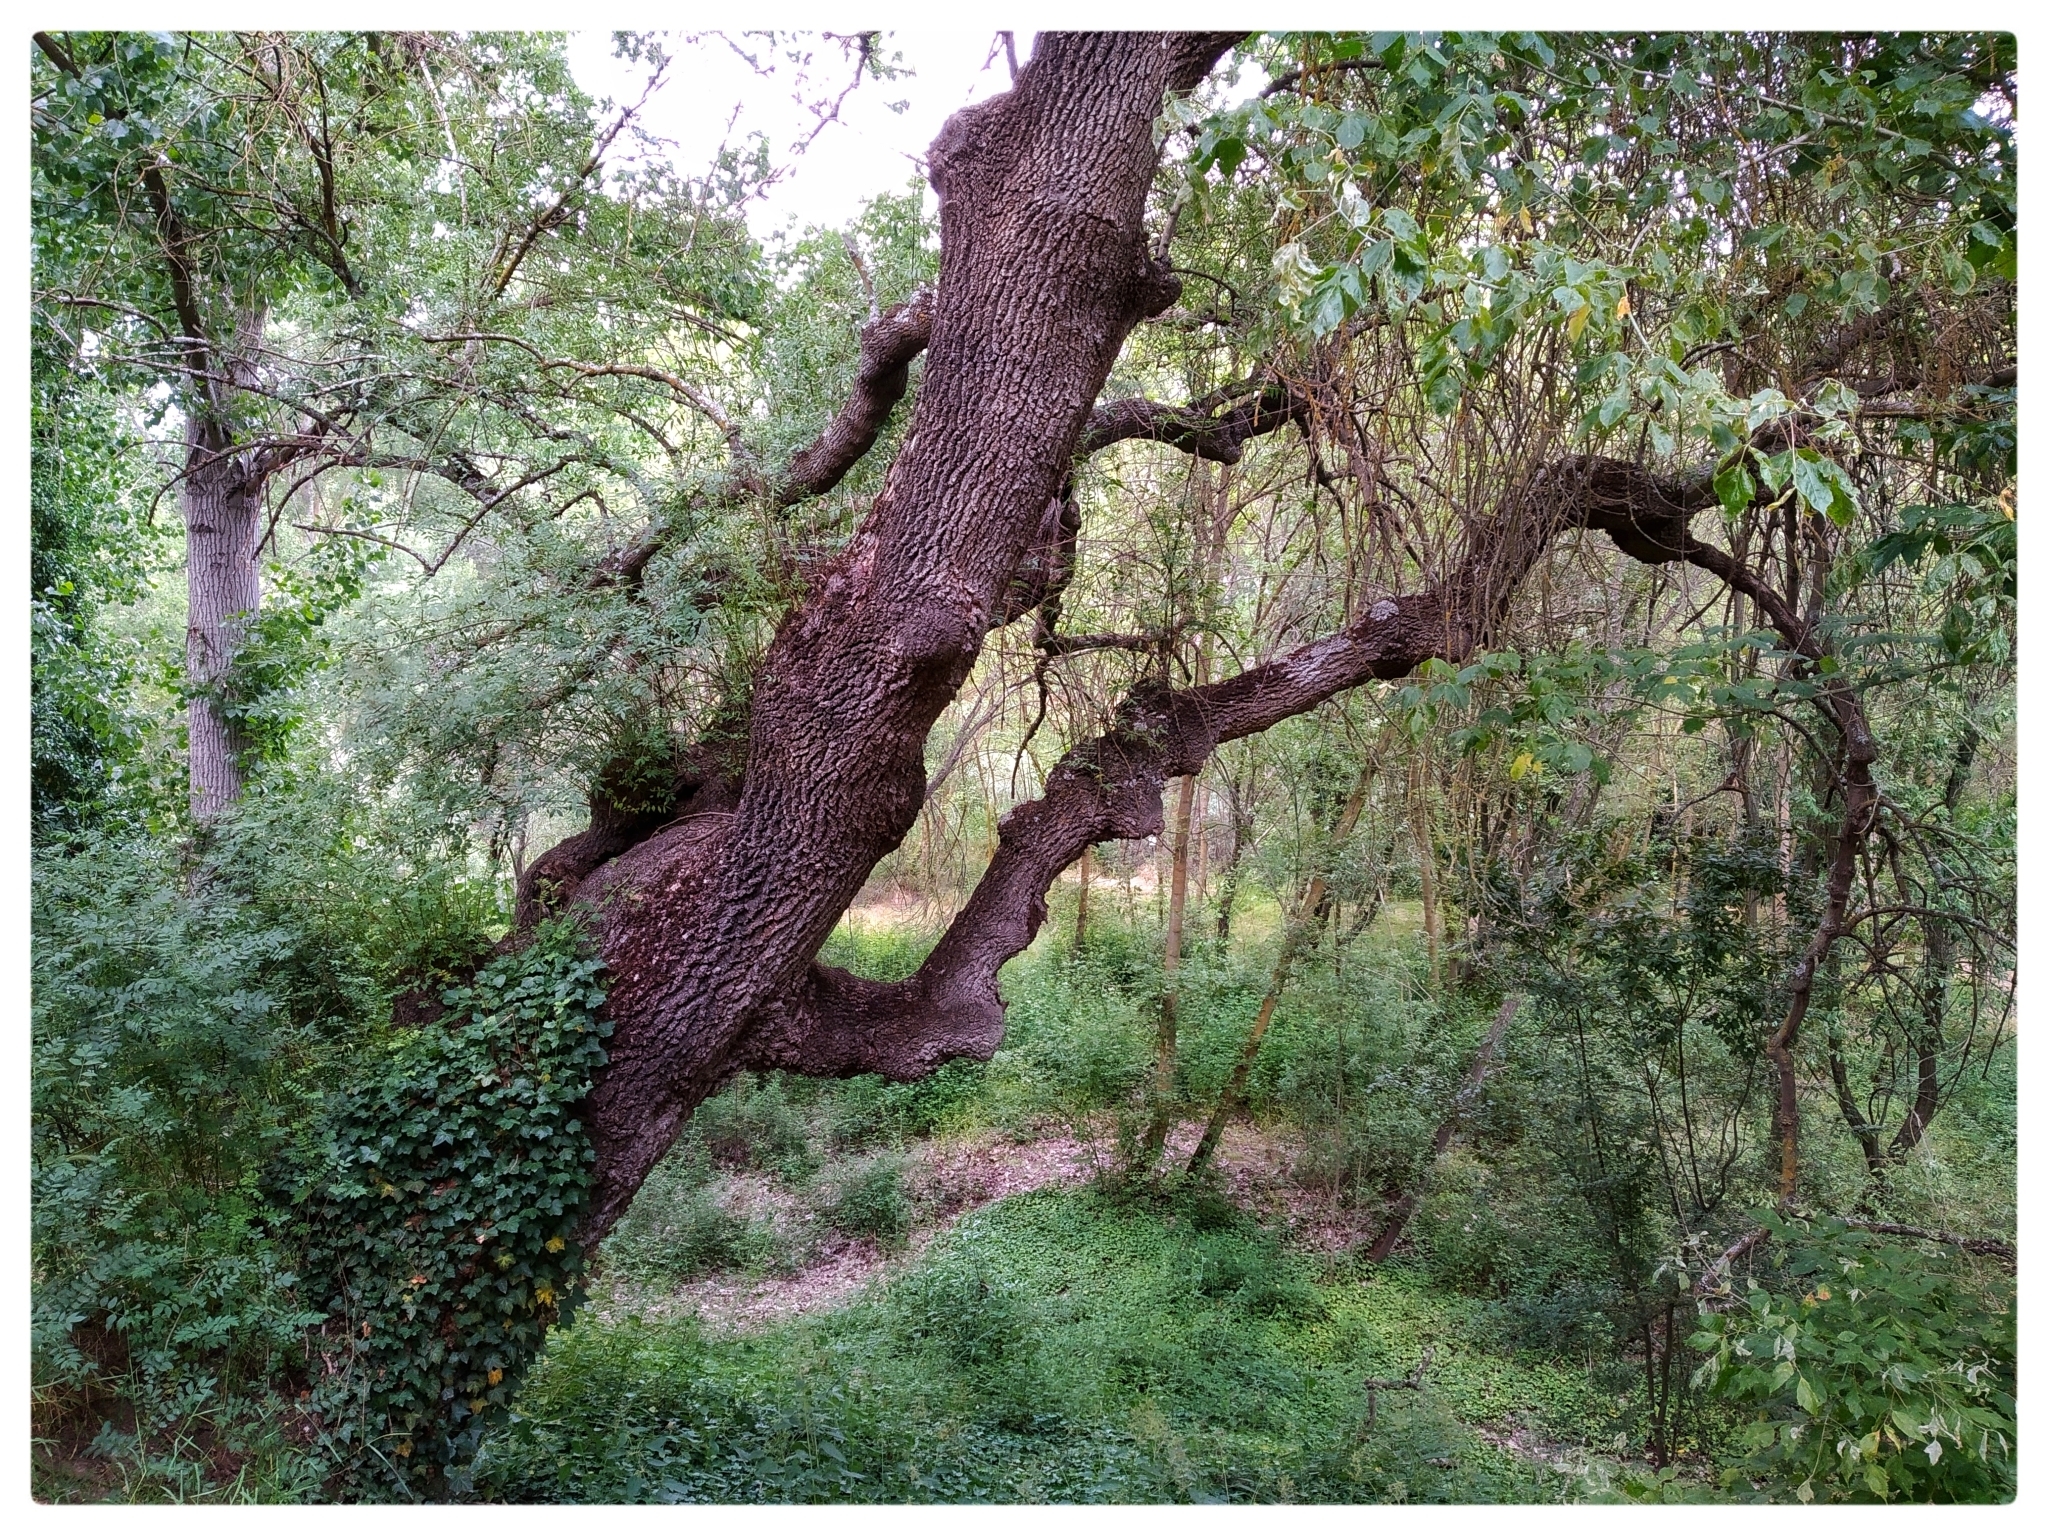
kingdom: Plantae
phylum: Tracheophyta
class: Magnoliopsida
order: Lamiales
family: Oleaceae
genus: Fraxinus
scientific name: Fraxinus angustifolia
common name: Narrow-leafed ash
